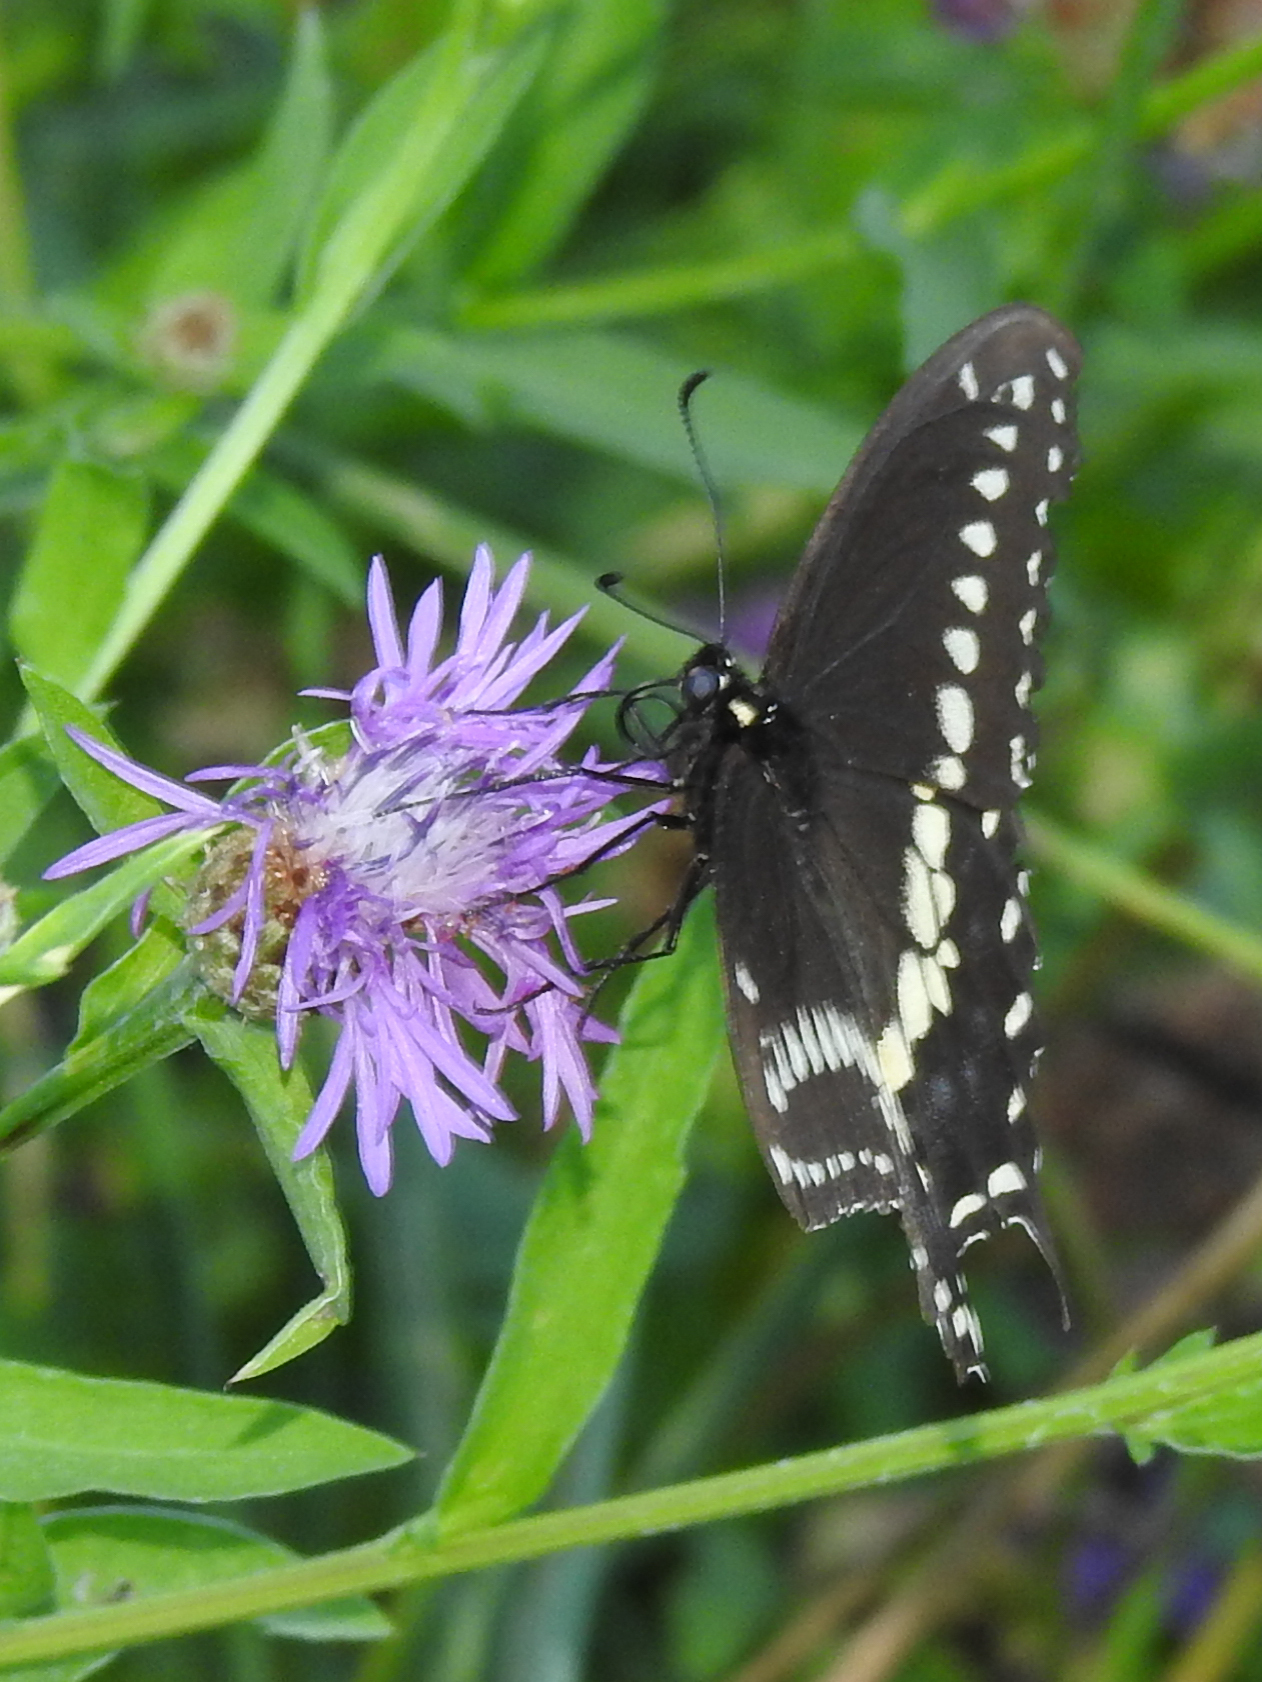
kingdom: Animalia
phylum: Arthropoda
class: Insecta
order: Lepidoptera
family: Papilionidae
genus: Papilio
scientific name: Papilio polyxenes
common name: Black swallowtail
